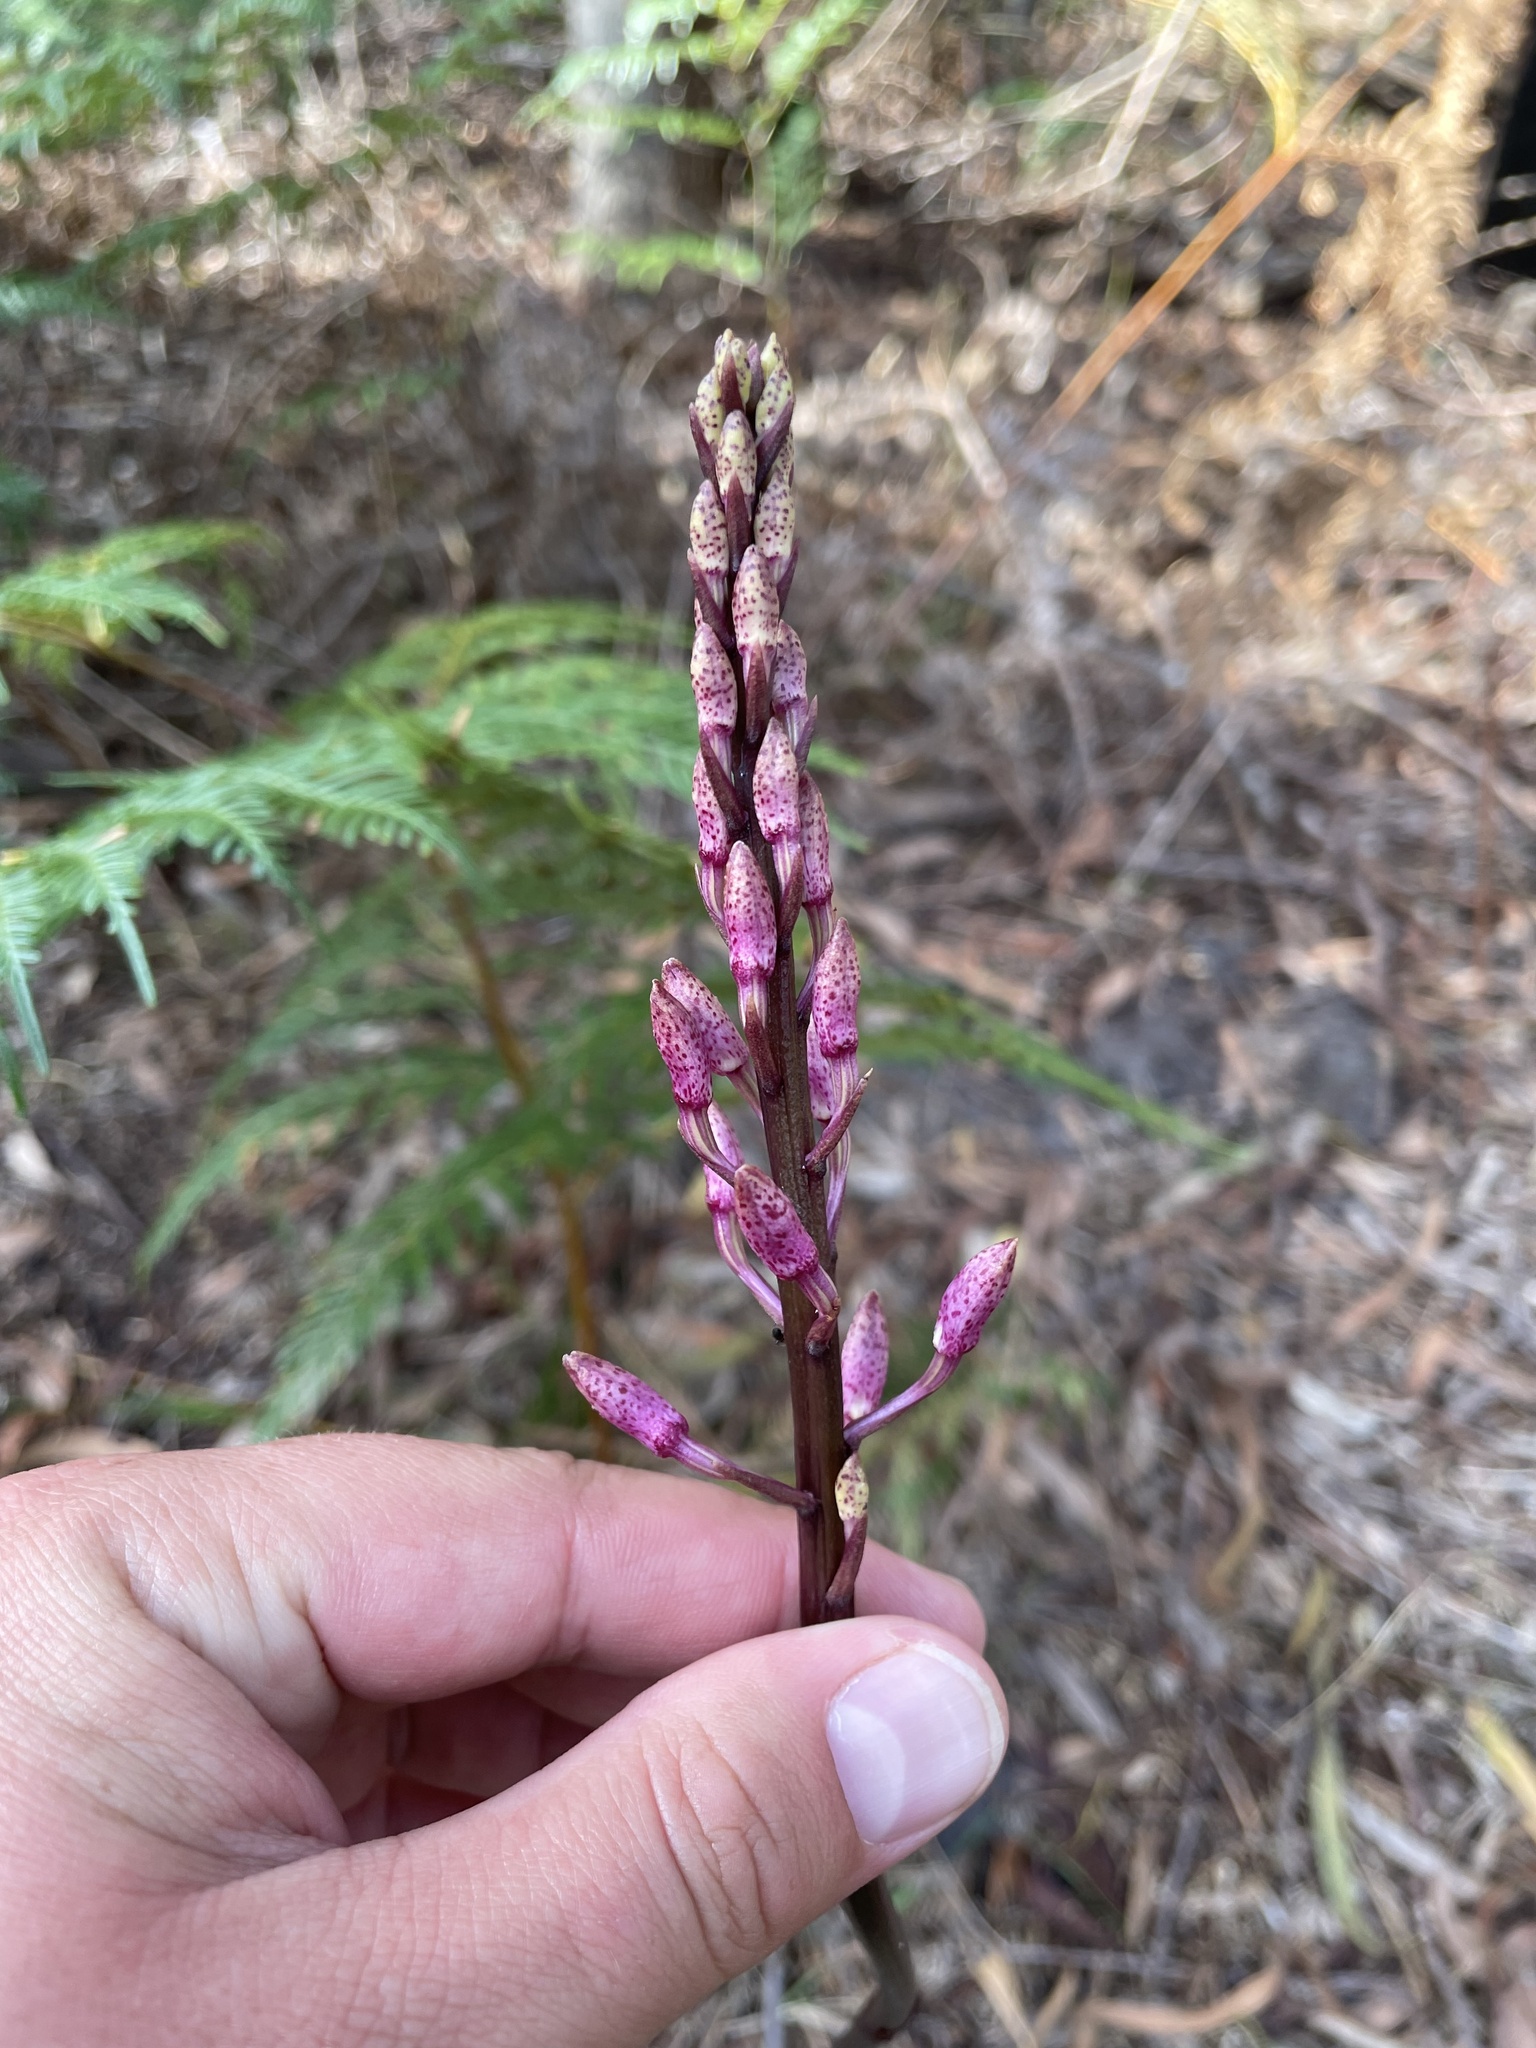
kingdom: Plantae
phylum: Tracheophyta
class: Liliopsida
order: Asparagales
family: Orchidaceae
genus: Dipodium
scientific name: Dipodium roseum
